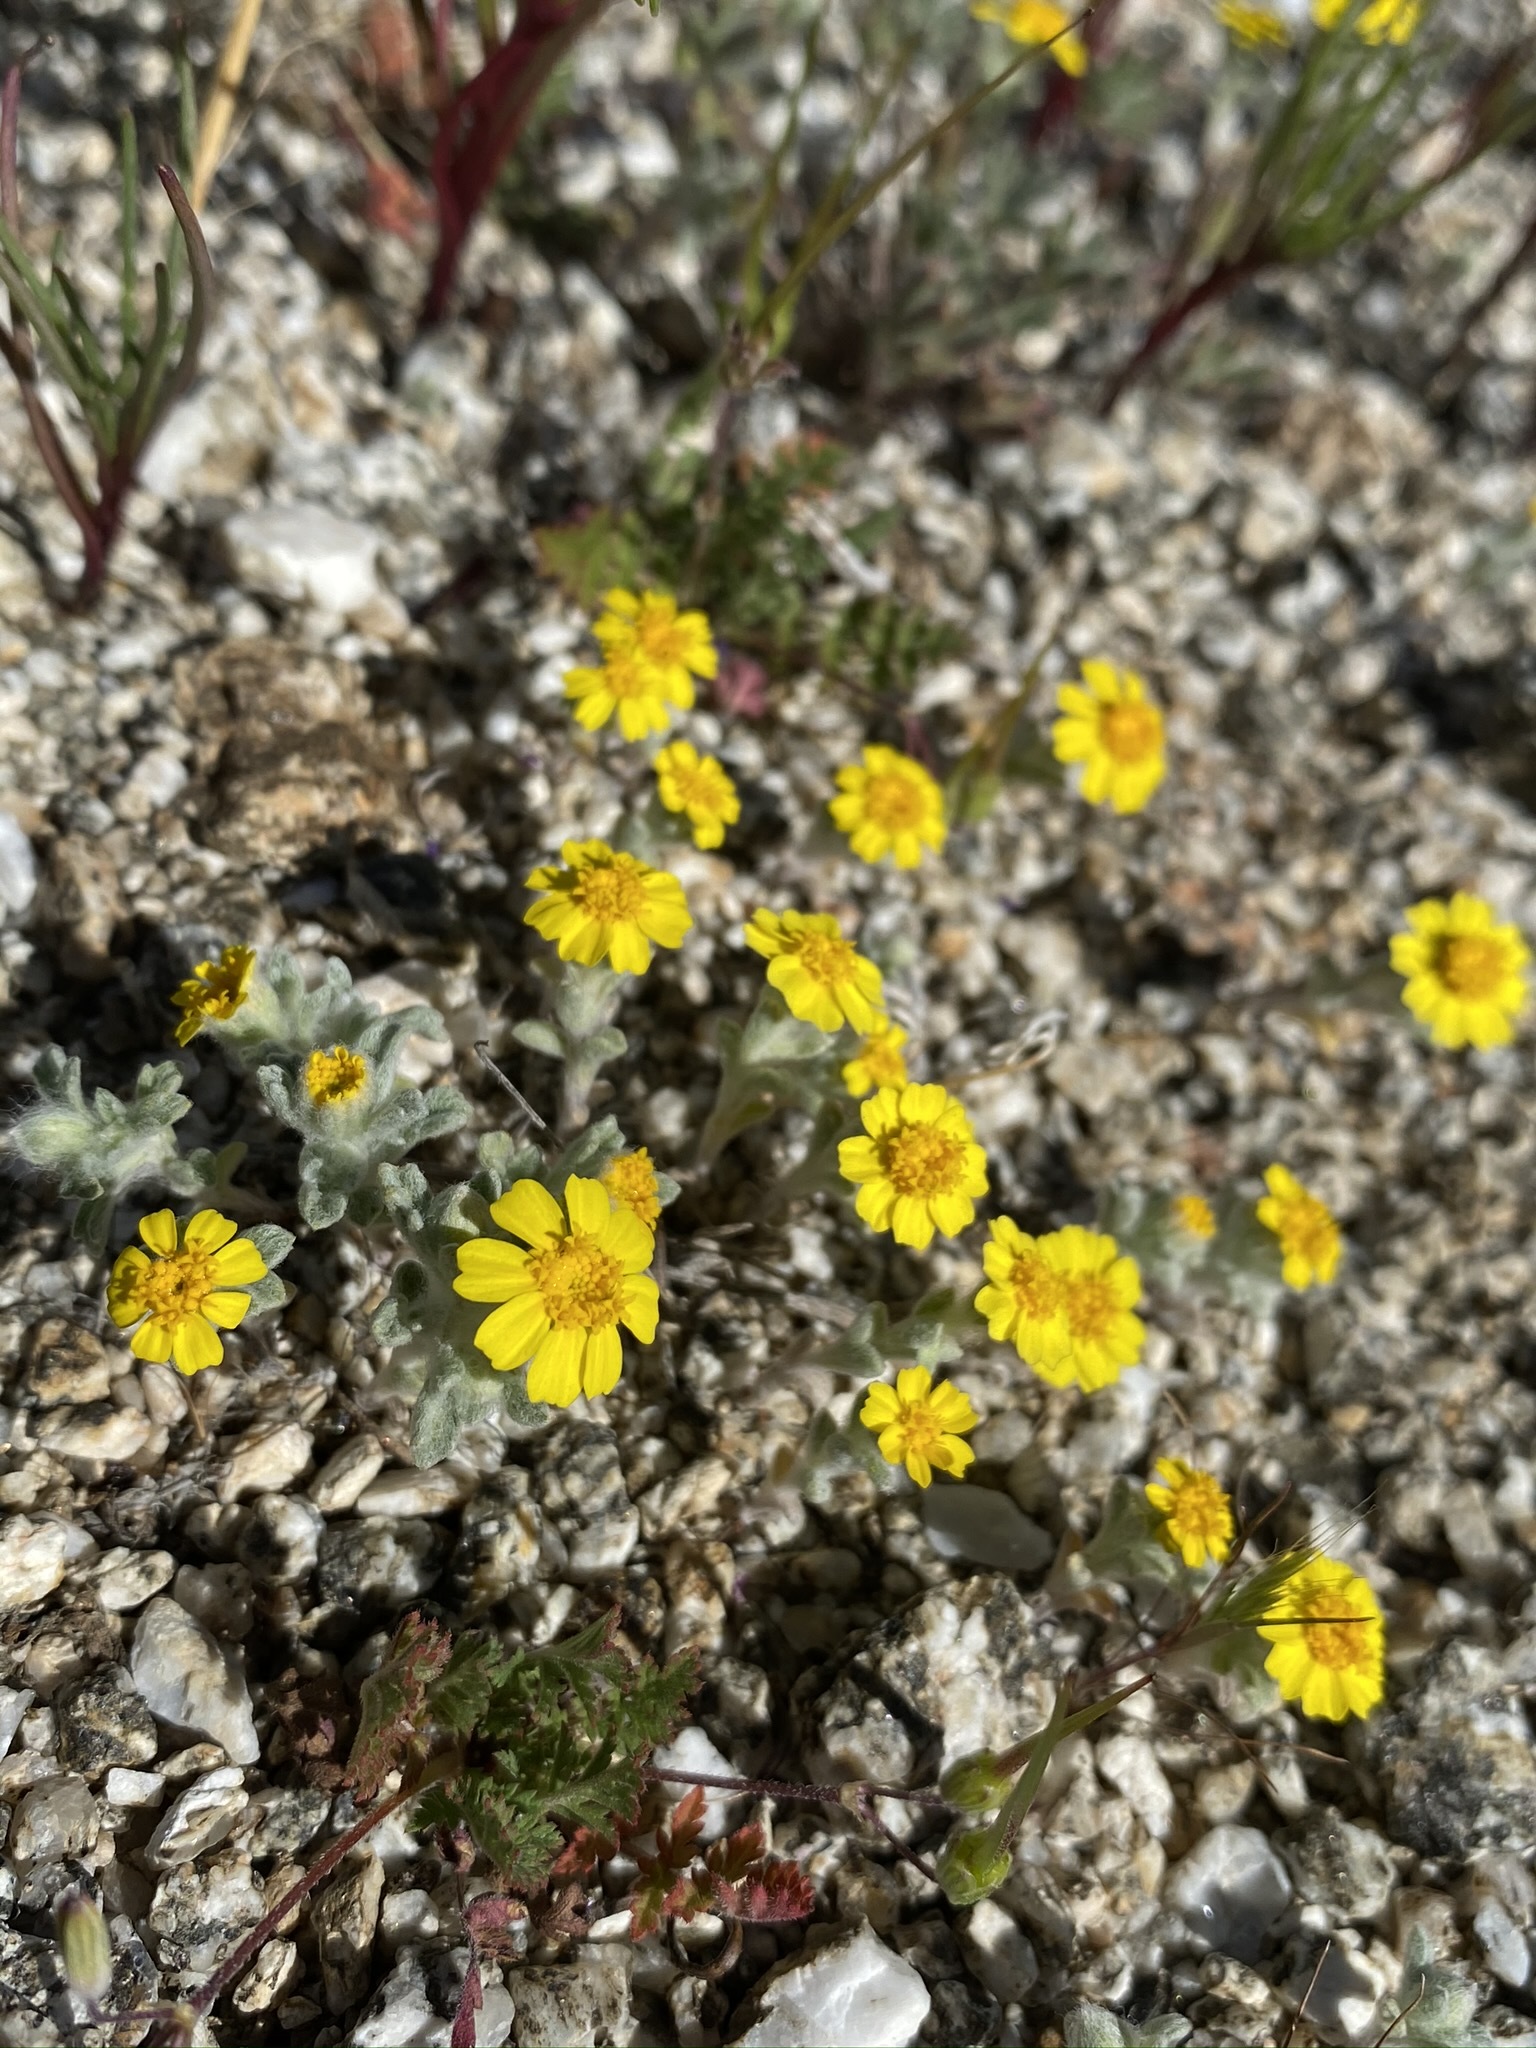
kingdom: Plantae
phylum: Tracheophyta
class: Magnoliopsida
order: Asterales
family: Asteraceae
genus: Eriophyllum
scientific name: Eriophyllum wallacei
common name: Wallace's woolly daisy
